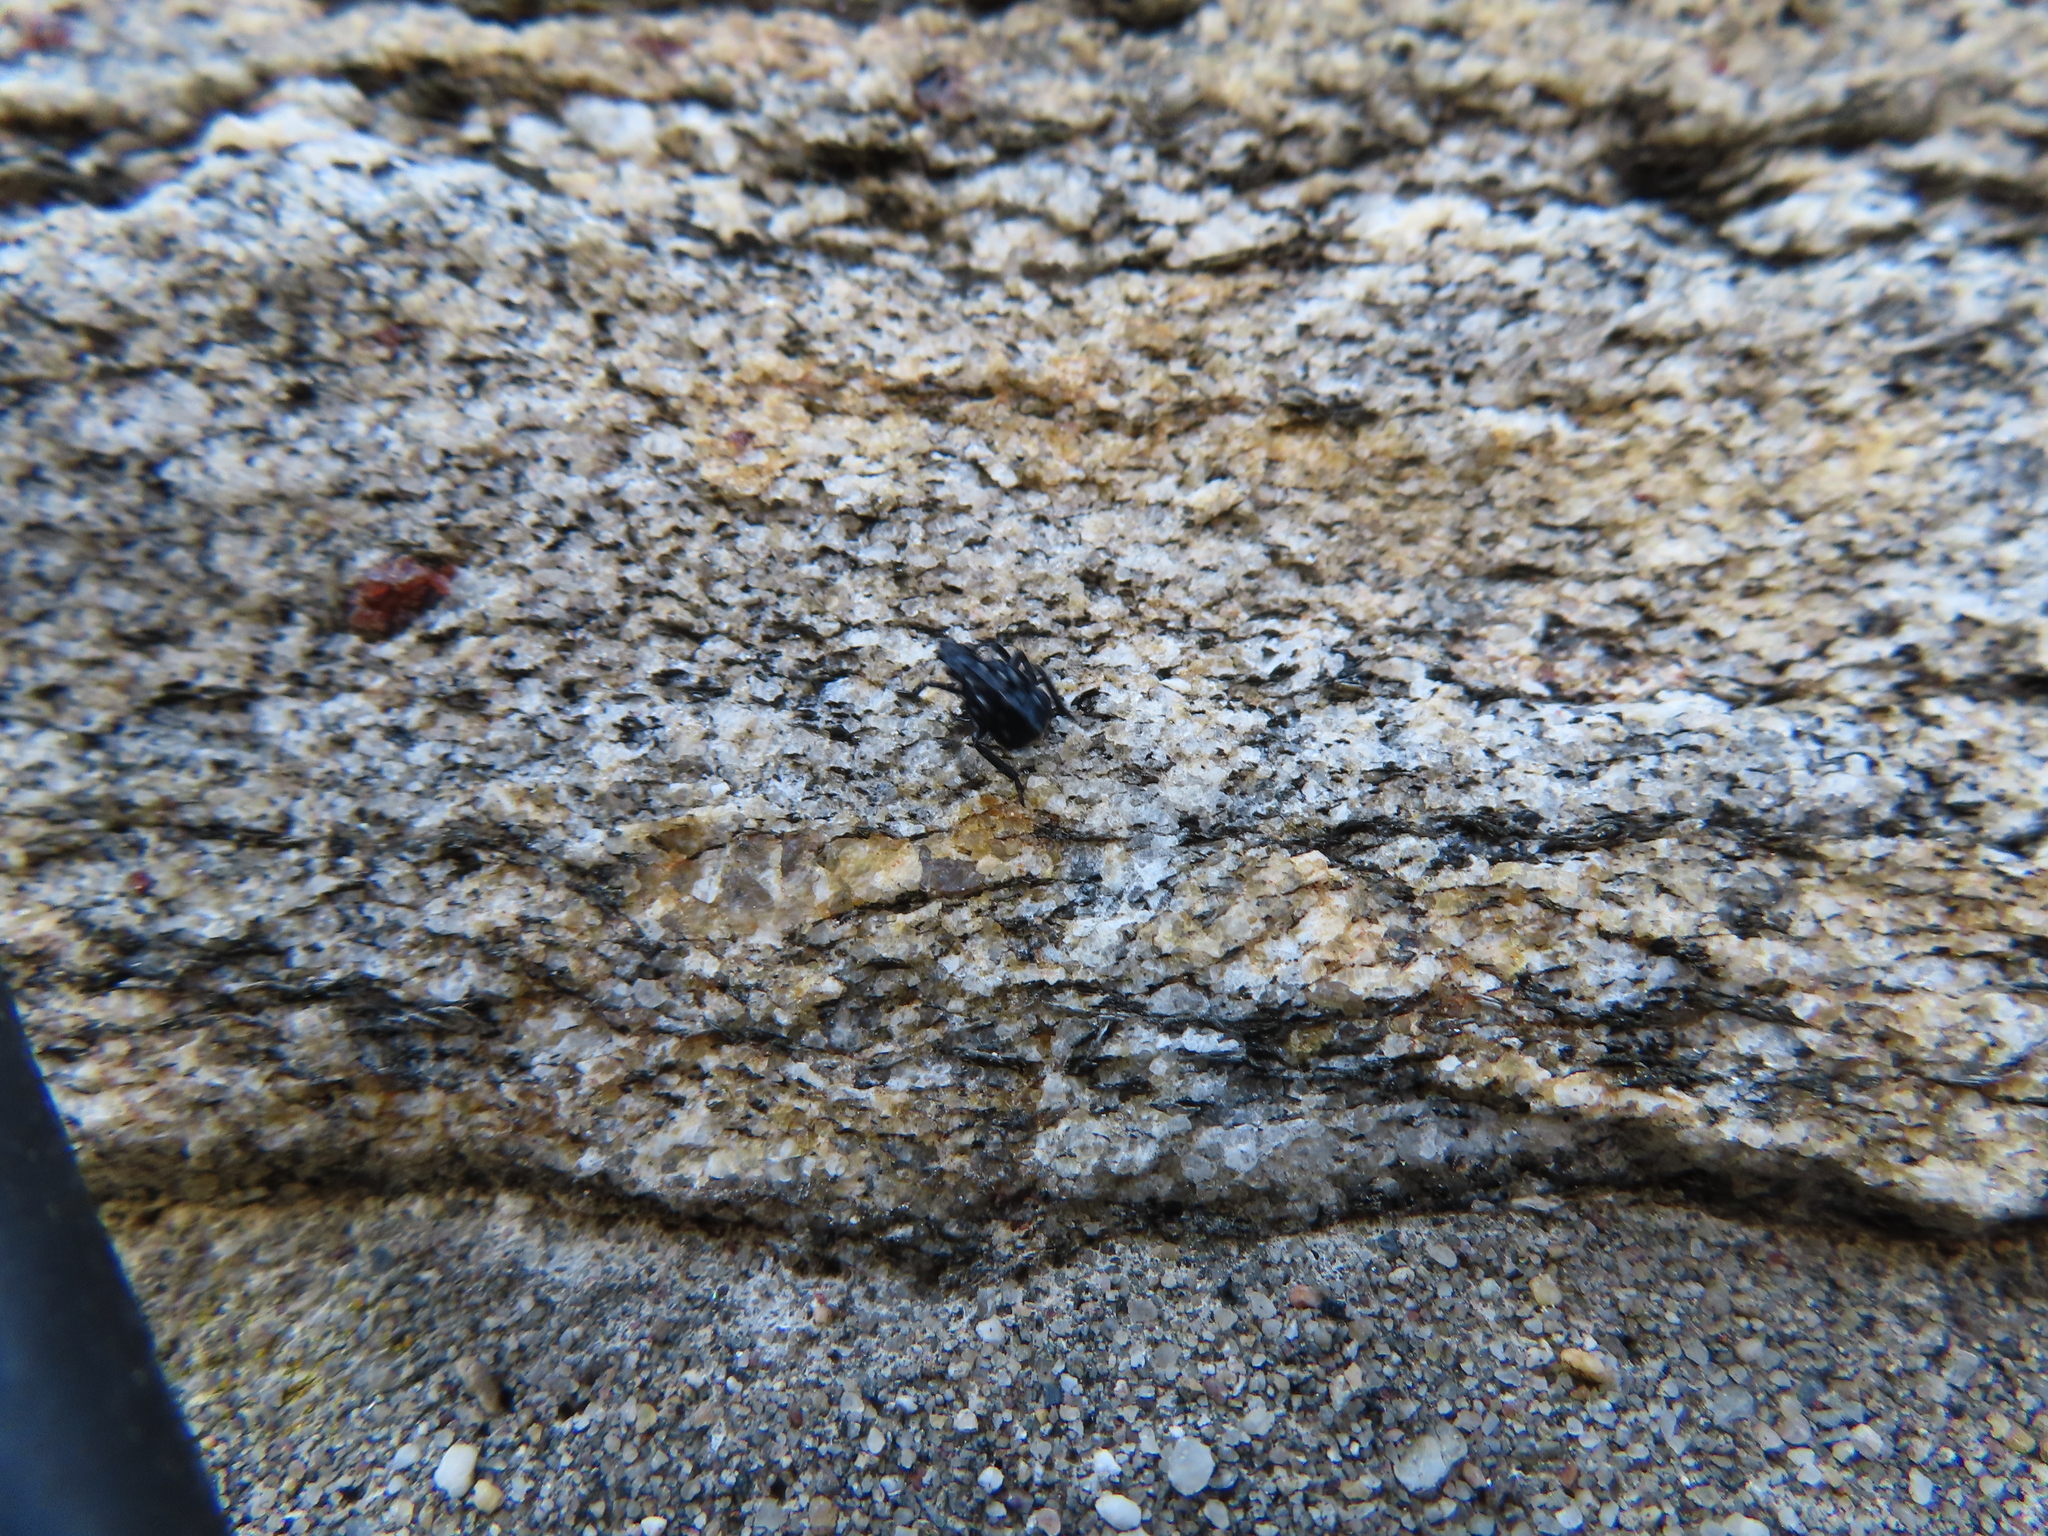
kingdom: Animalia
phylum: Arthropoda
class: Insecta
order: Hemiptera
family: Fulgoridae
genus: Lycorma
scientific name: Lycorma delicatula
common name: Spotted lanternfly
